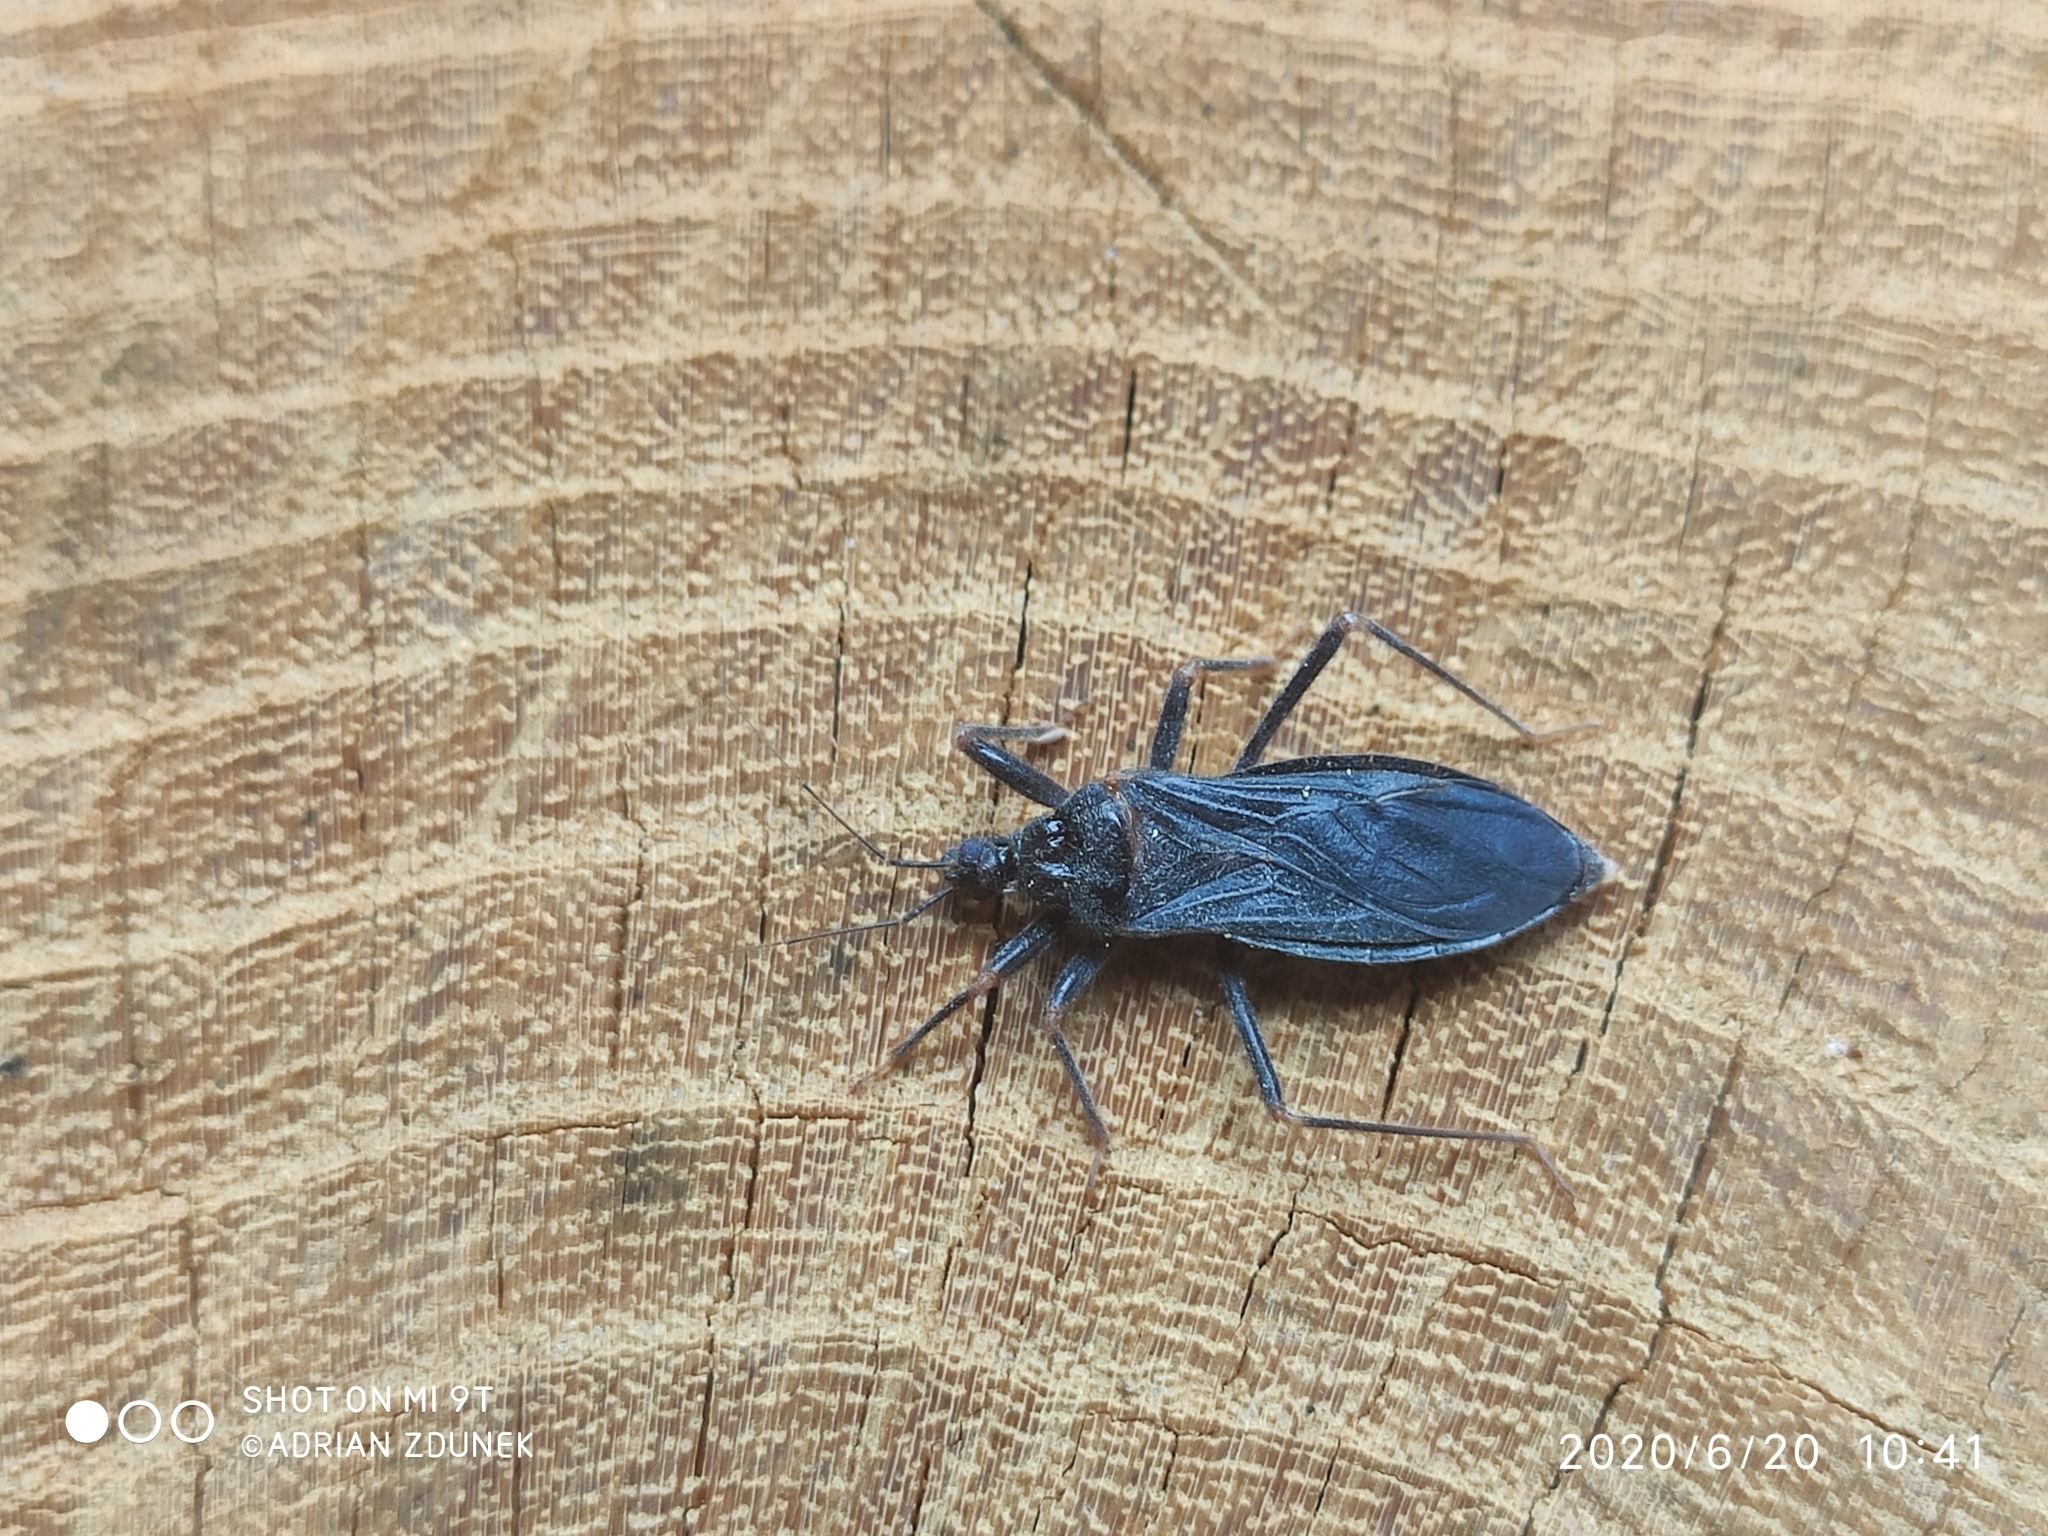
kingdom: Animalia
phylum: Arthropoda
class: Insecta
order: Hemiptera
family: Reduviidae
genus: Reduvius
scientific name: Reduvius personatus
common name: Masked hunter
